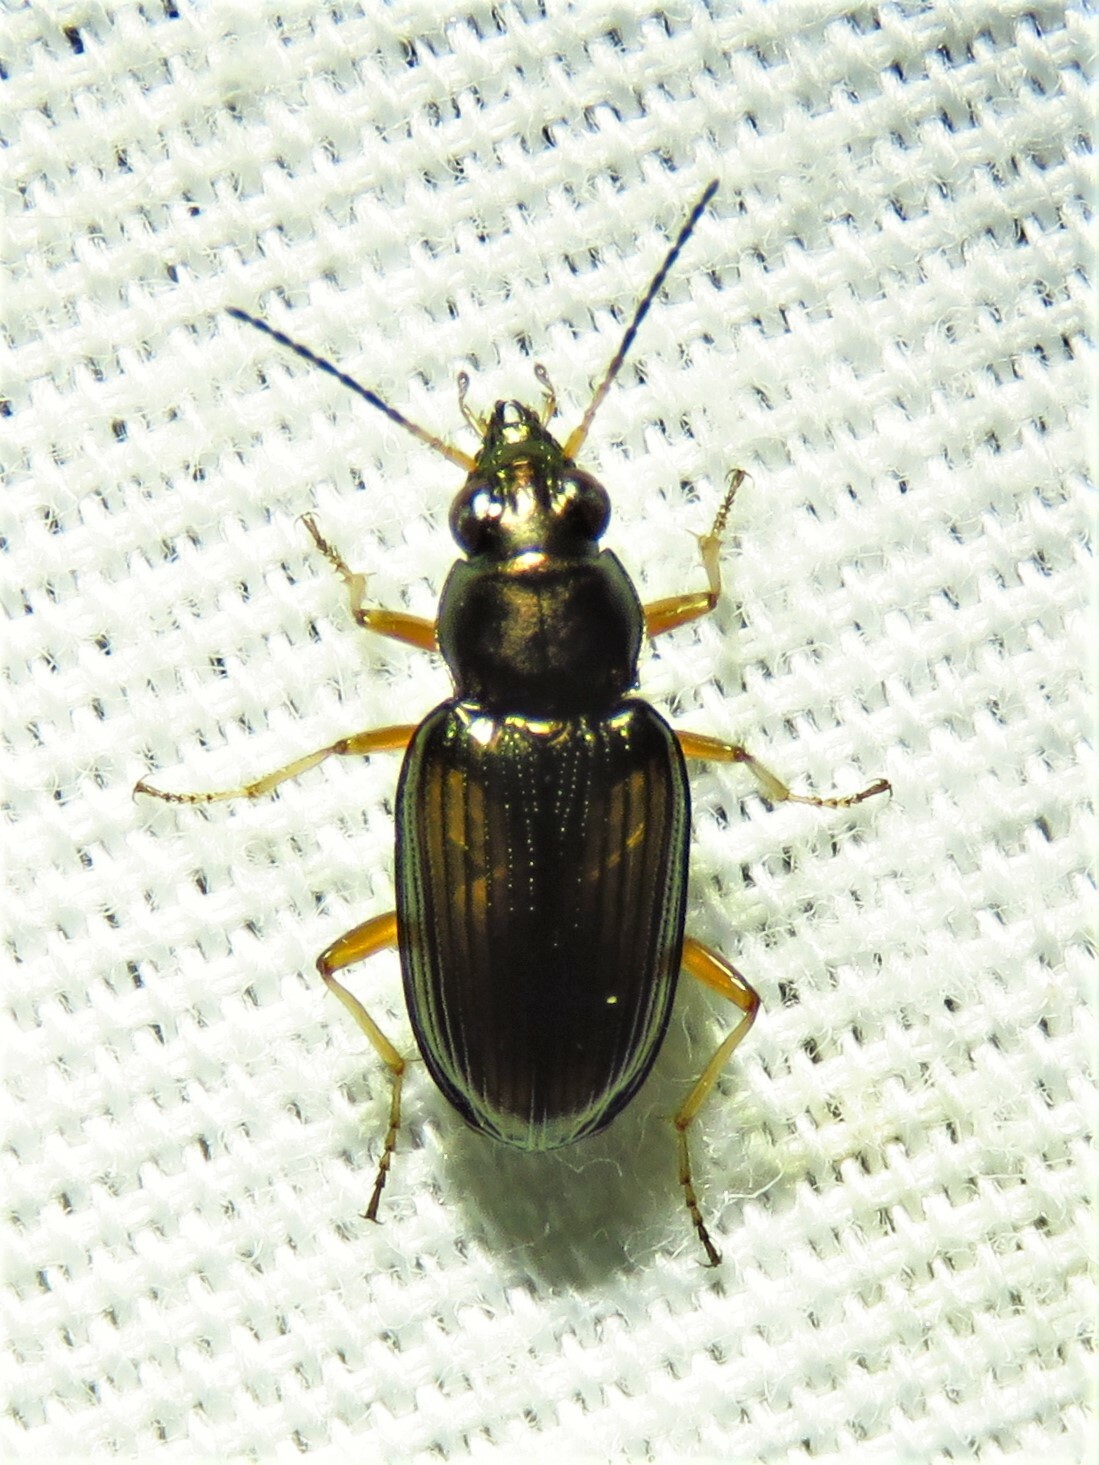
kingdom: Animalia
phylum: Arthropoda
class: Insecta
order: Coleoptera
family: Carabidae
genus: Bembidion
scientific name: Bembidion confusum
